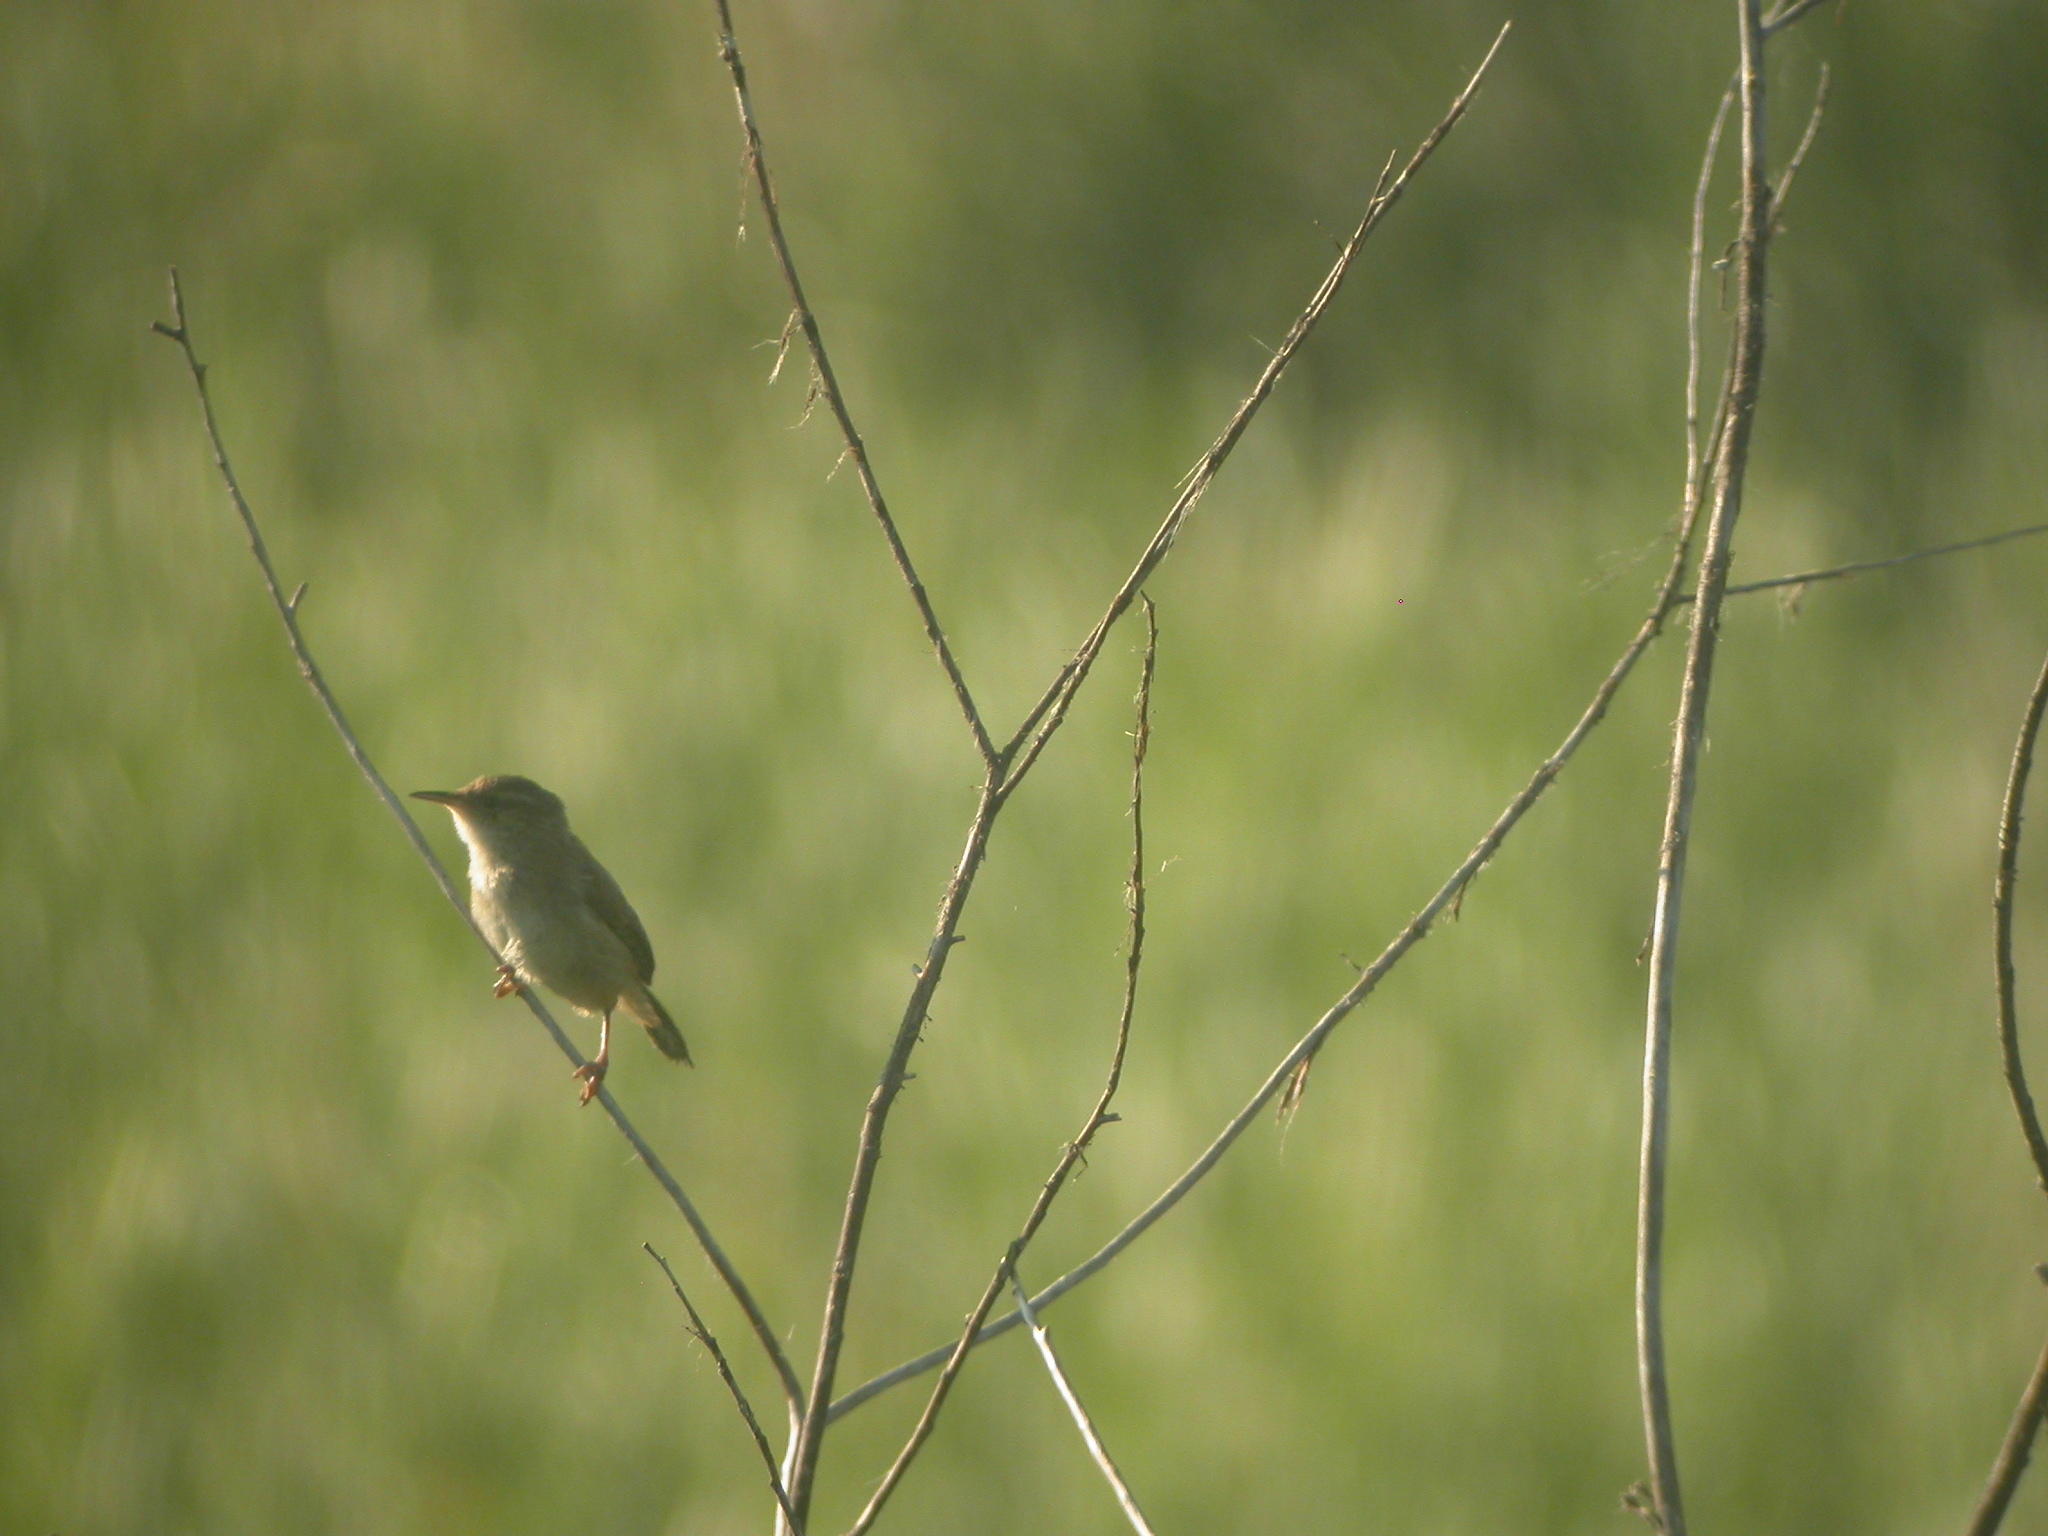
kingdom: Animalia
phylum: Chordata
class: Aves
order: Passeriformes
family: Troglodytidae
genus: Cistothorus
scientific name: Cistothorus palustris
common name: Marsh wren
